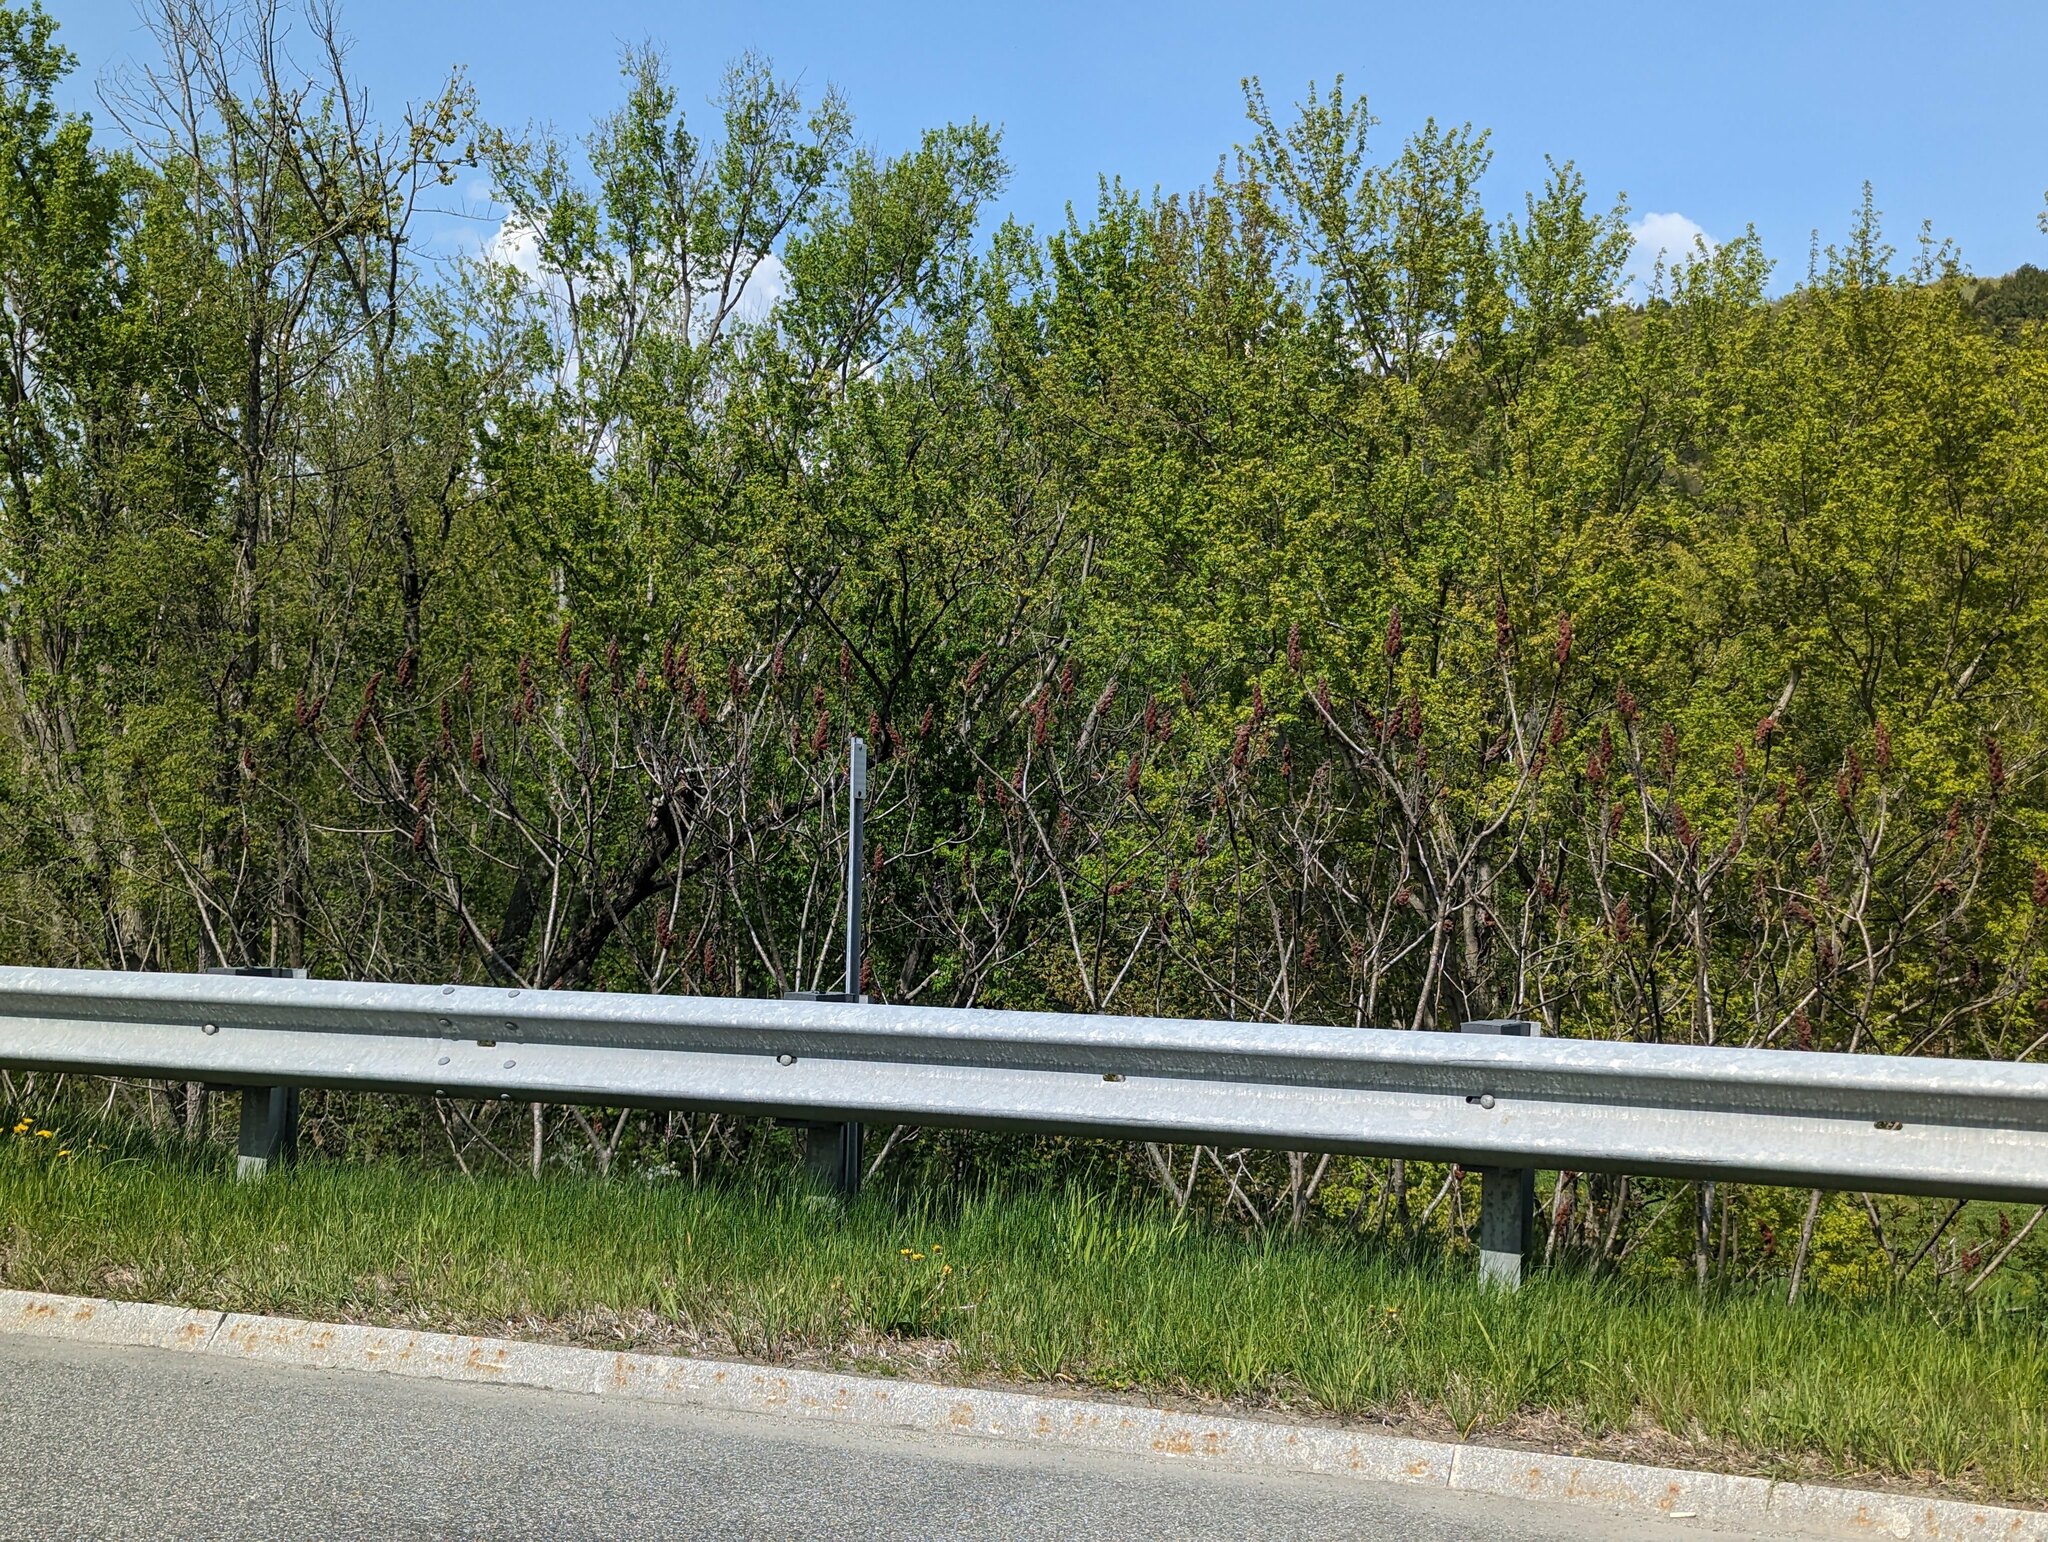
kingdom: Plantae
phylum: Tracheophyta
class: Magnoliopsida
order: Sapindales
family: Anacardiaceae
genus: Rhus
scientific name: Rhus typhina
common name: Staghorn sumac
